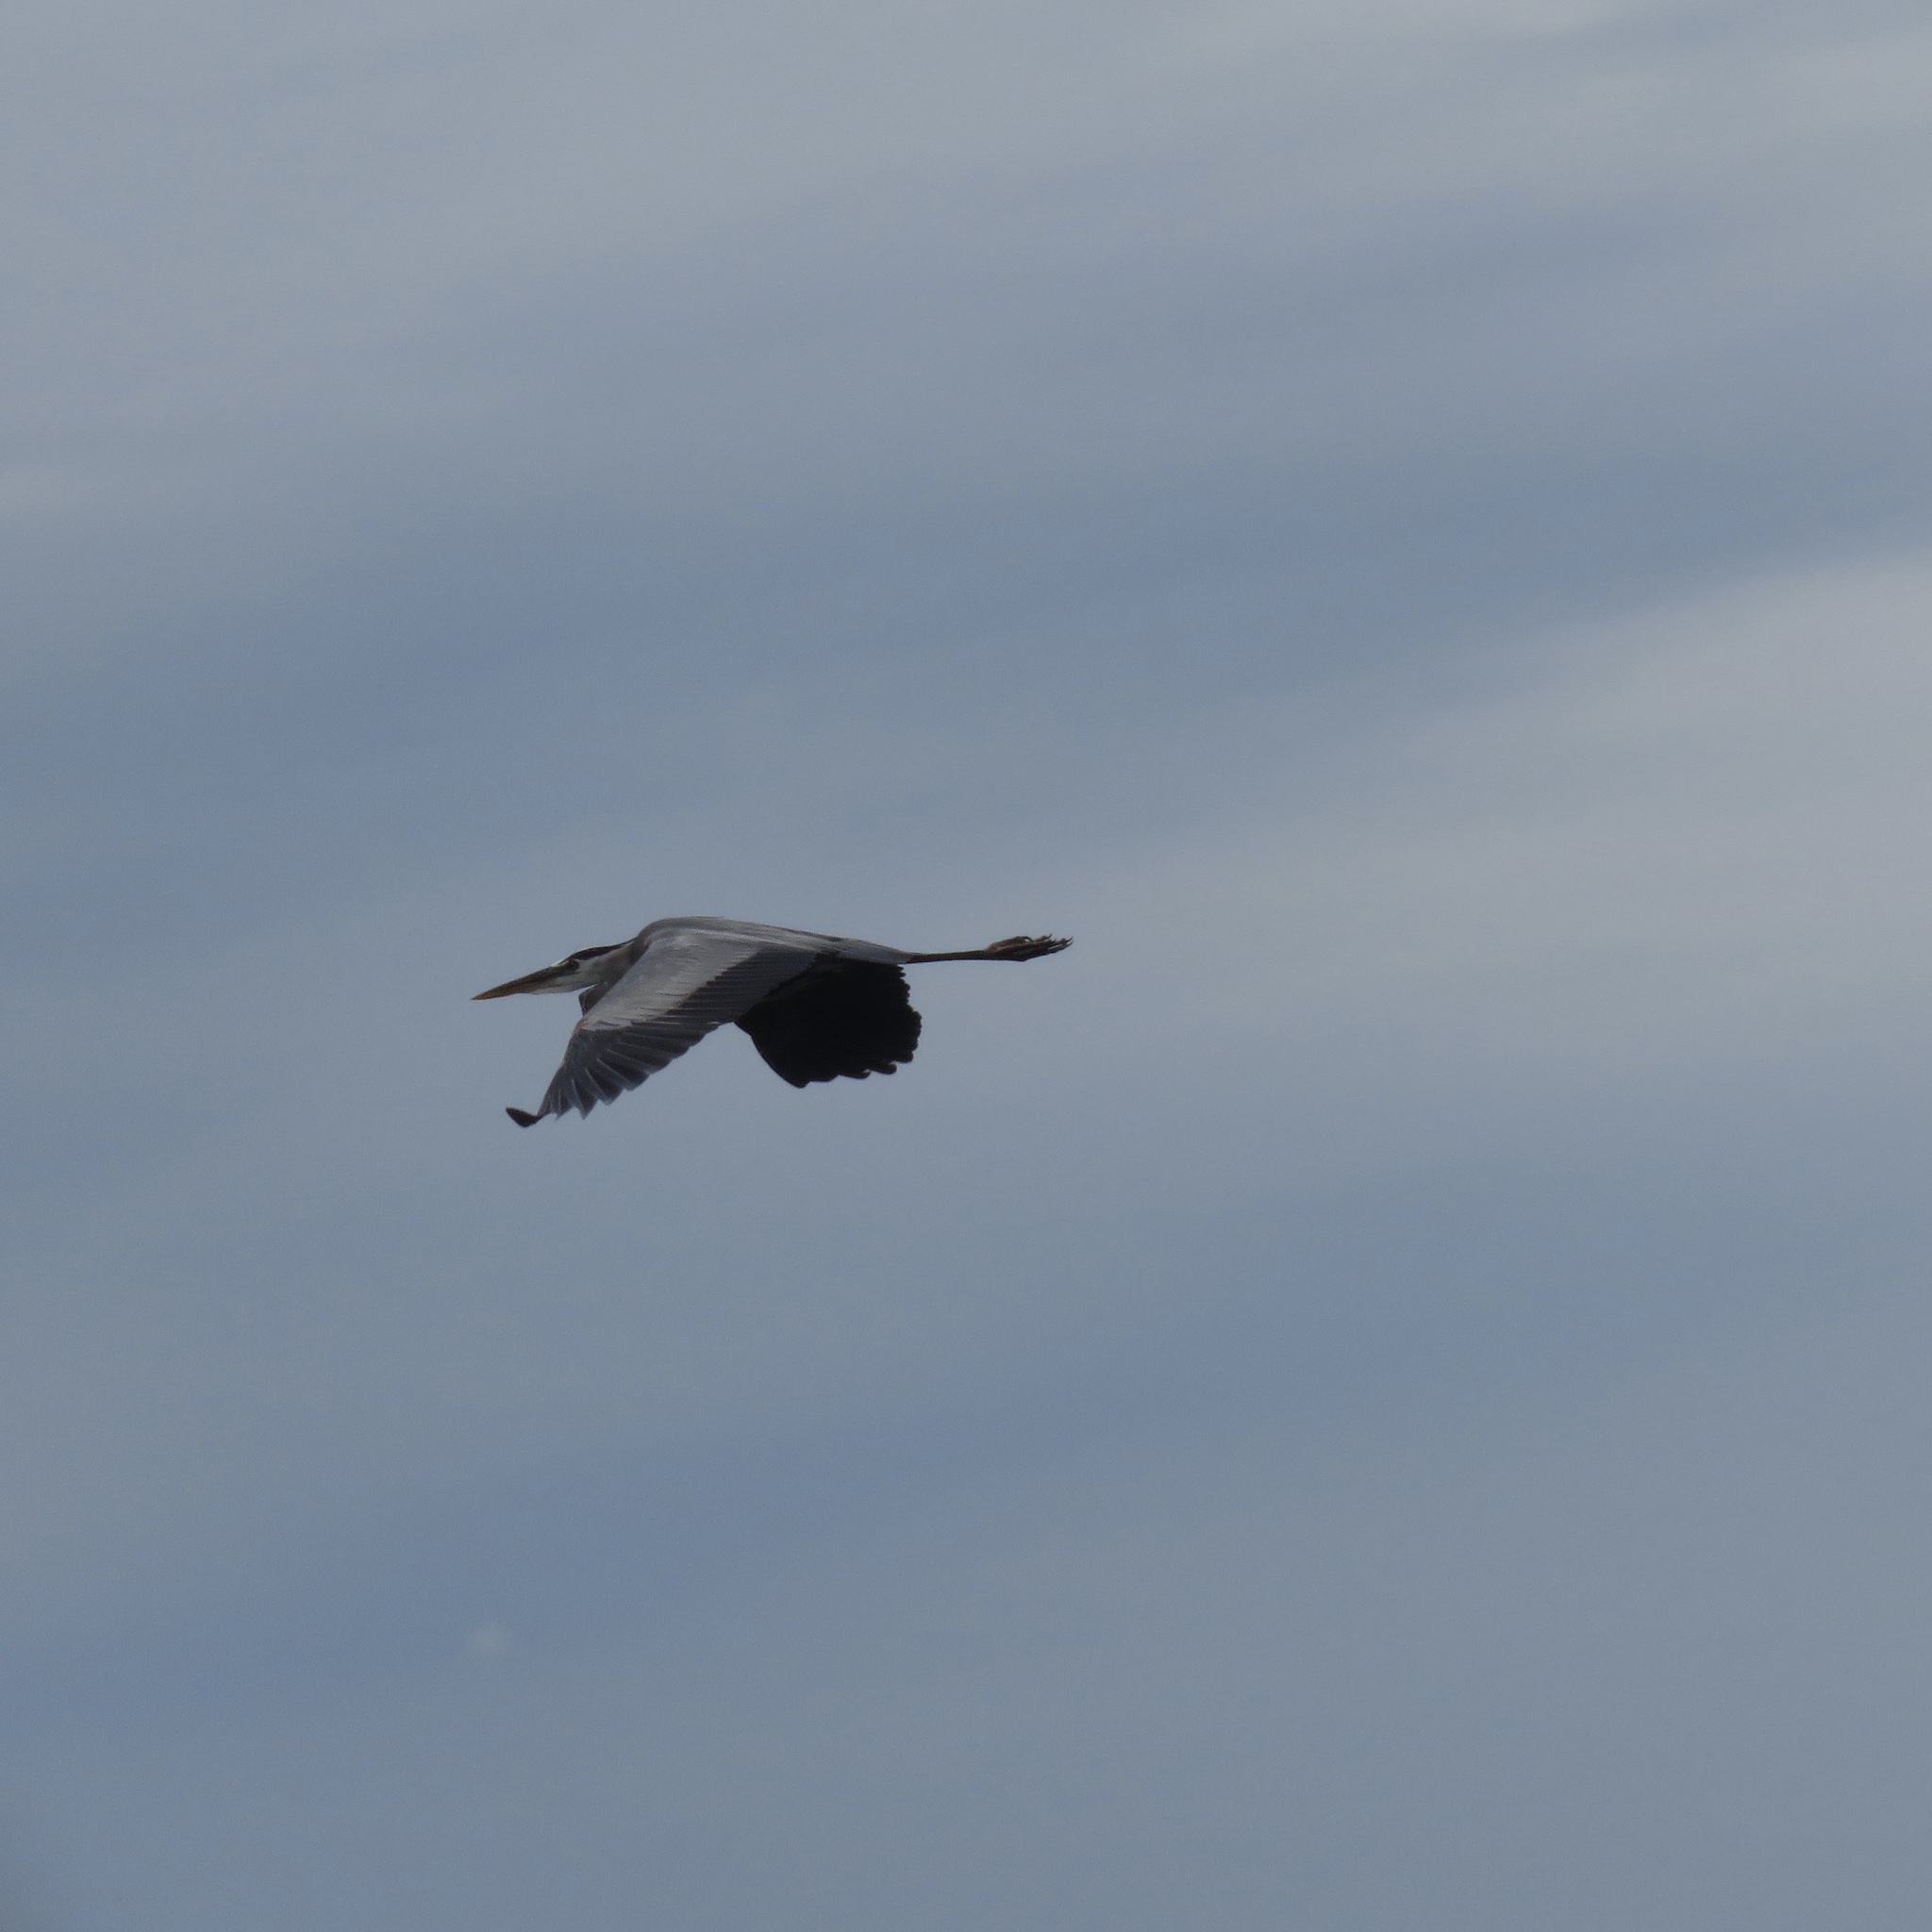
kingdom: Animalia
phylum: Chordata
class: Aves
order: Pelecaniformes
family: Ardeidae
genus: Ardea
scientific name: Ardea herodias
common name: Great blue heron
